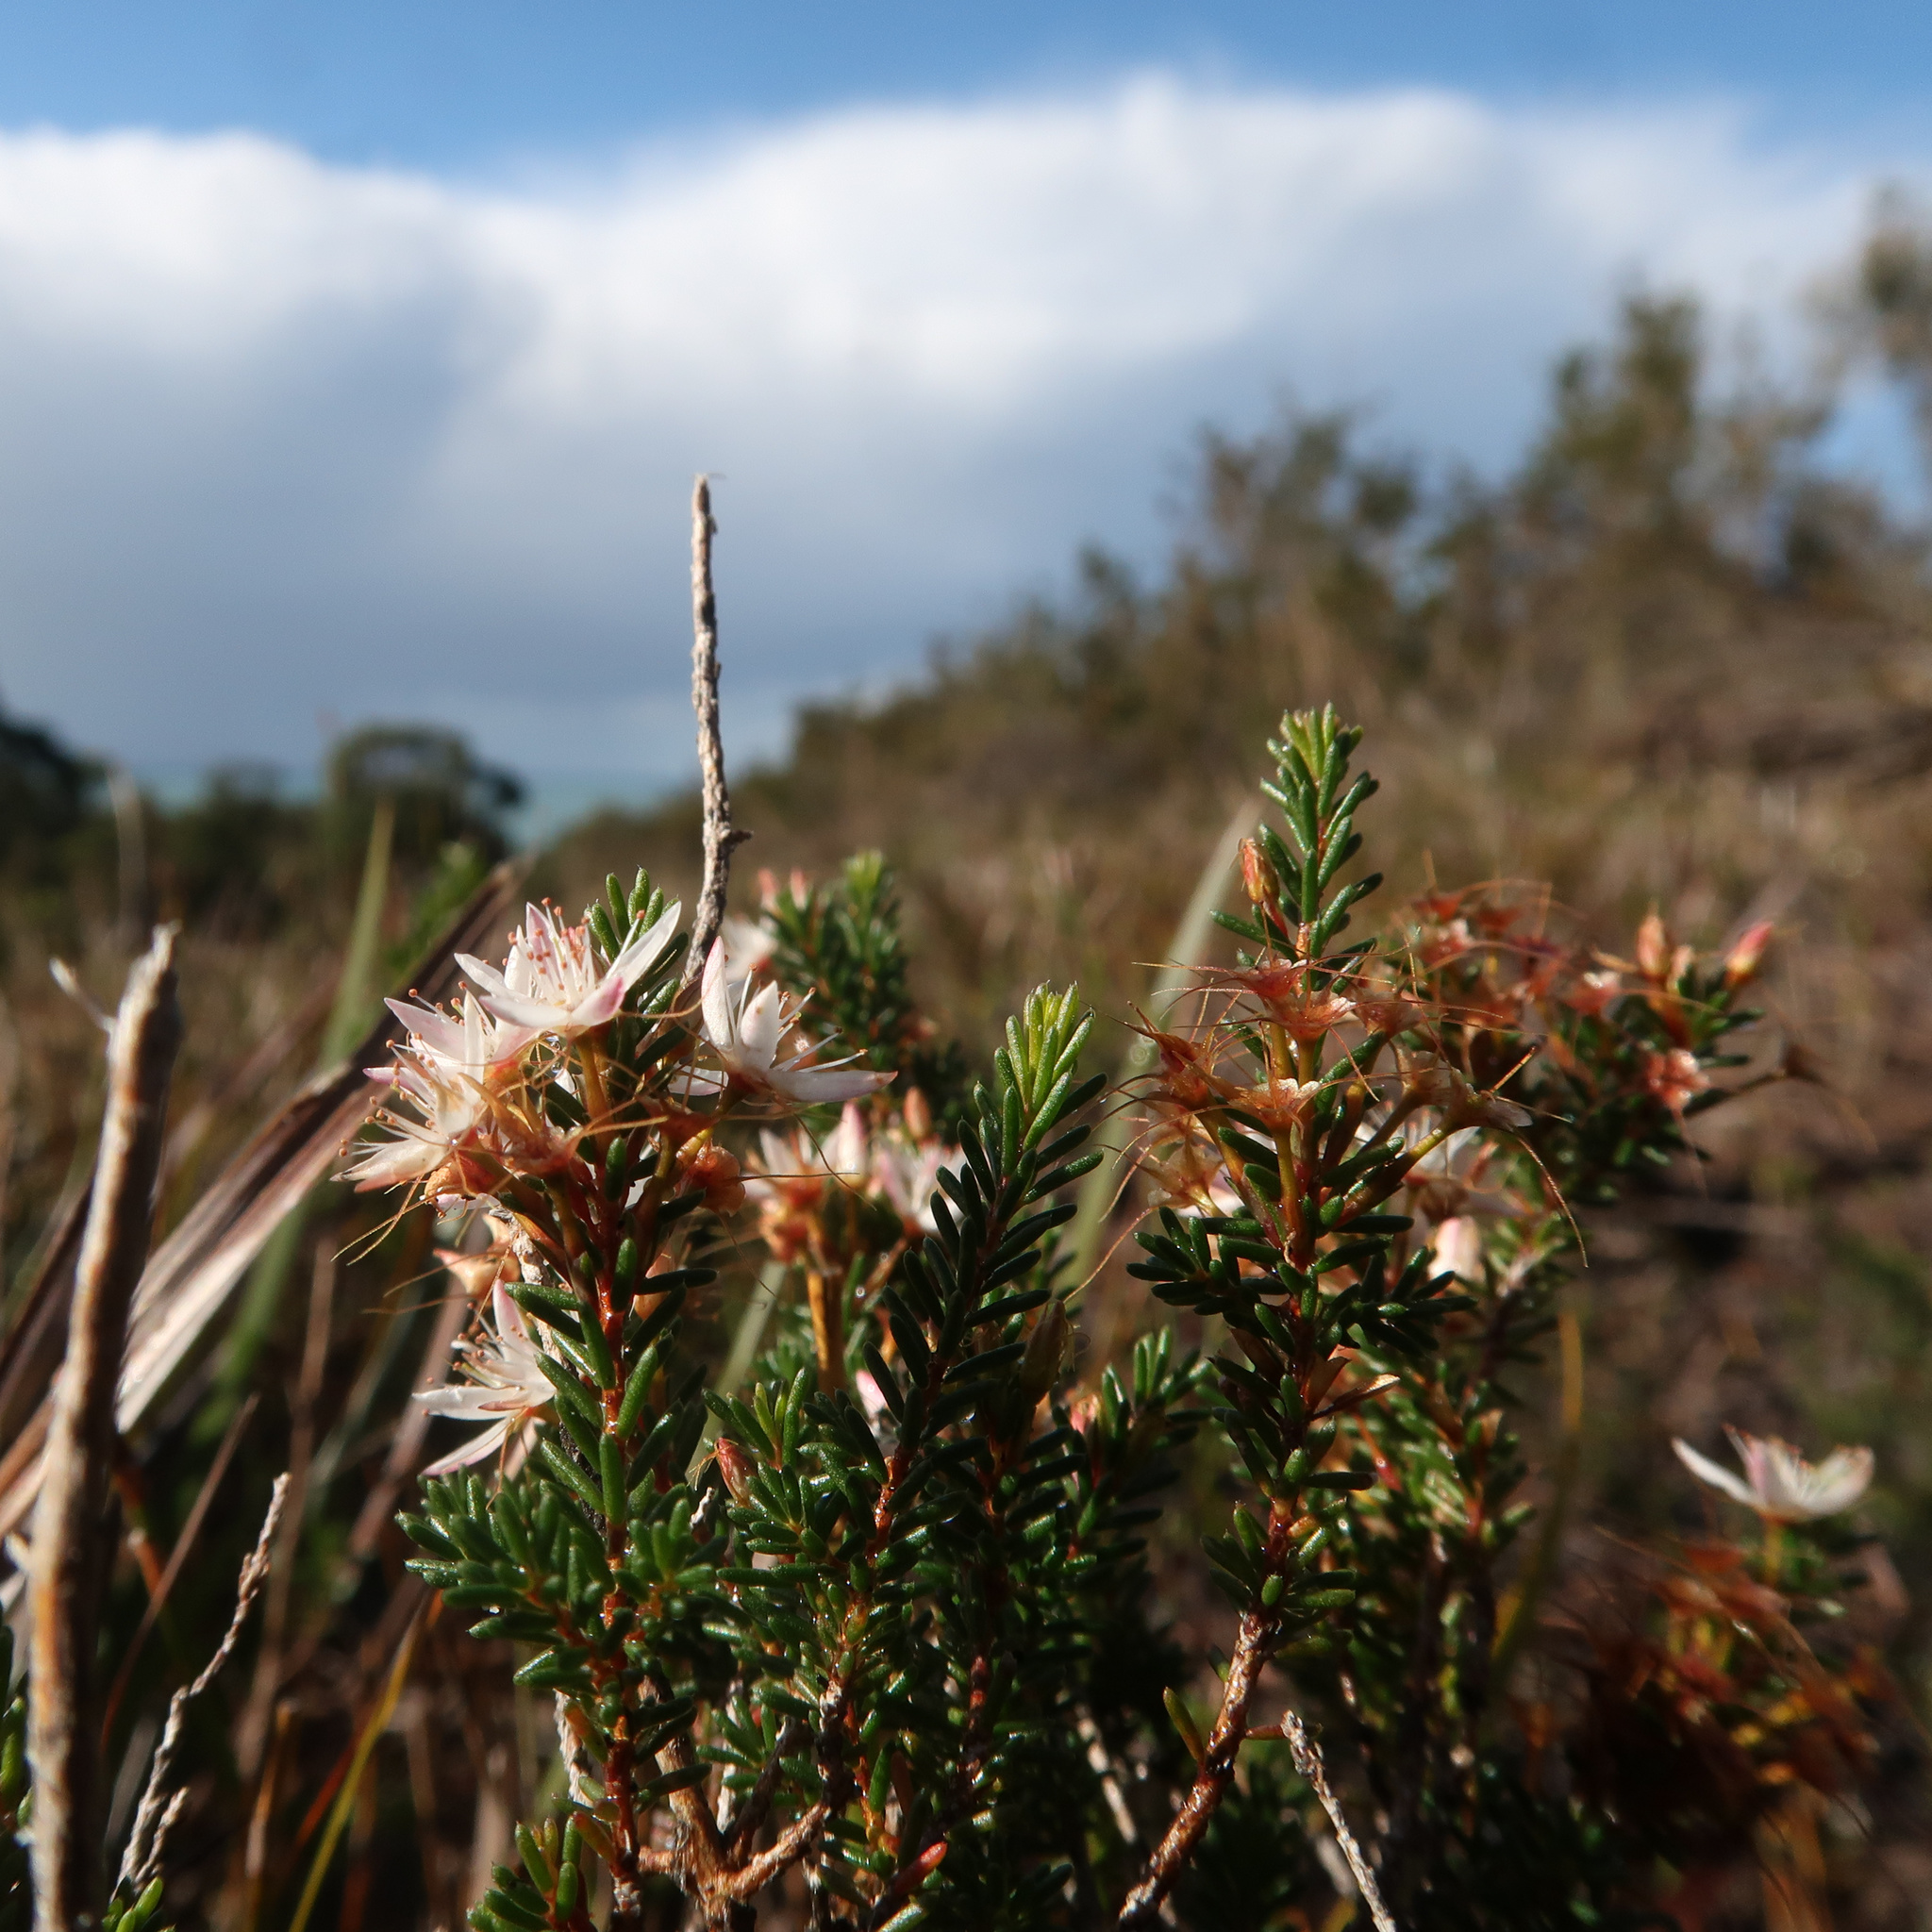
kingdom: Plantae
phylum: Tracheophyta
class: Magnoliopsida
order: Myrtales
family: Myrtaceae
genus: Calytrix
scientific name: Calytrix tetragona
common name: Common fringe myrtle
